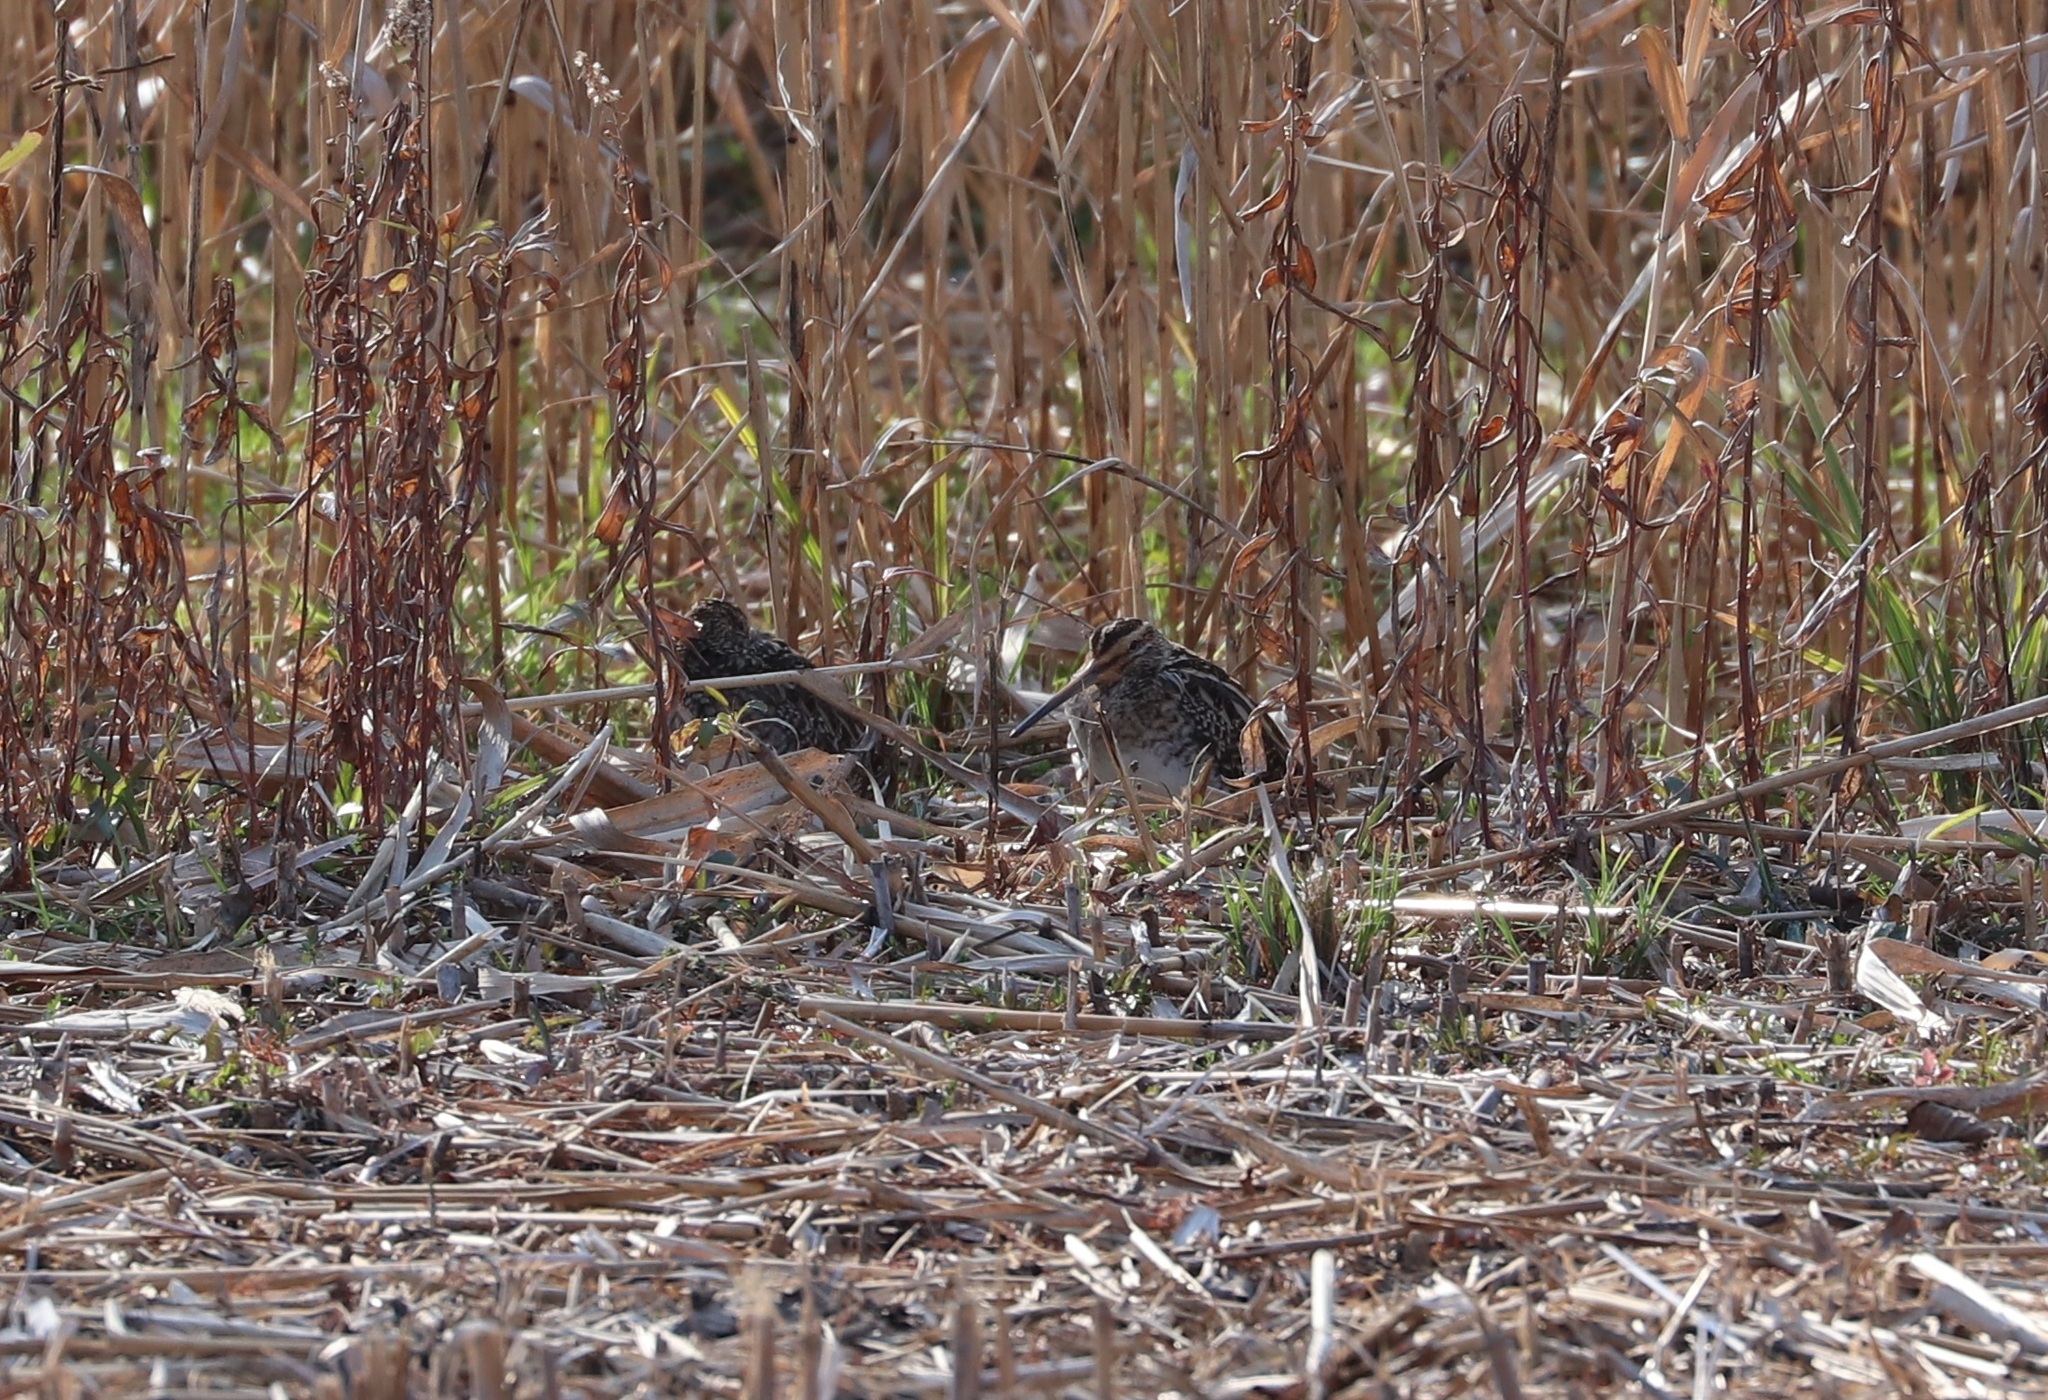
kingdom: Animalia
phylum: Chordata
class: Aves
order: Charadriiformes
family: Scolopacidae
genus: Gallinago
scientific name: Gallinago gallinago
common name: Common snipe
